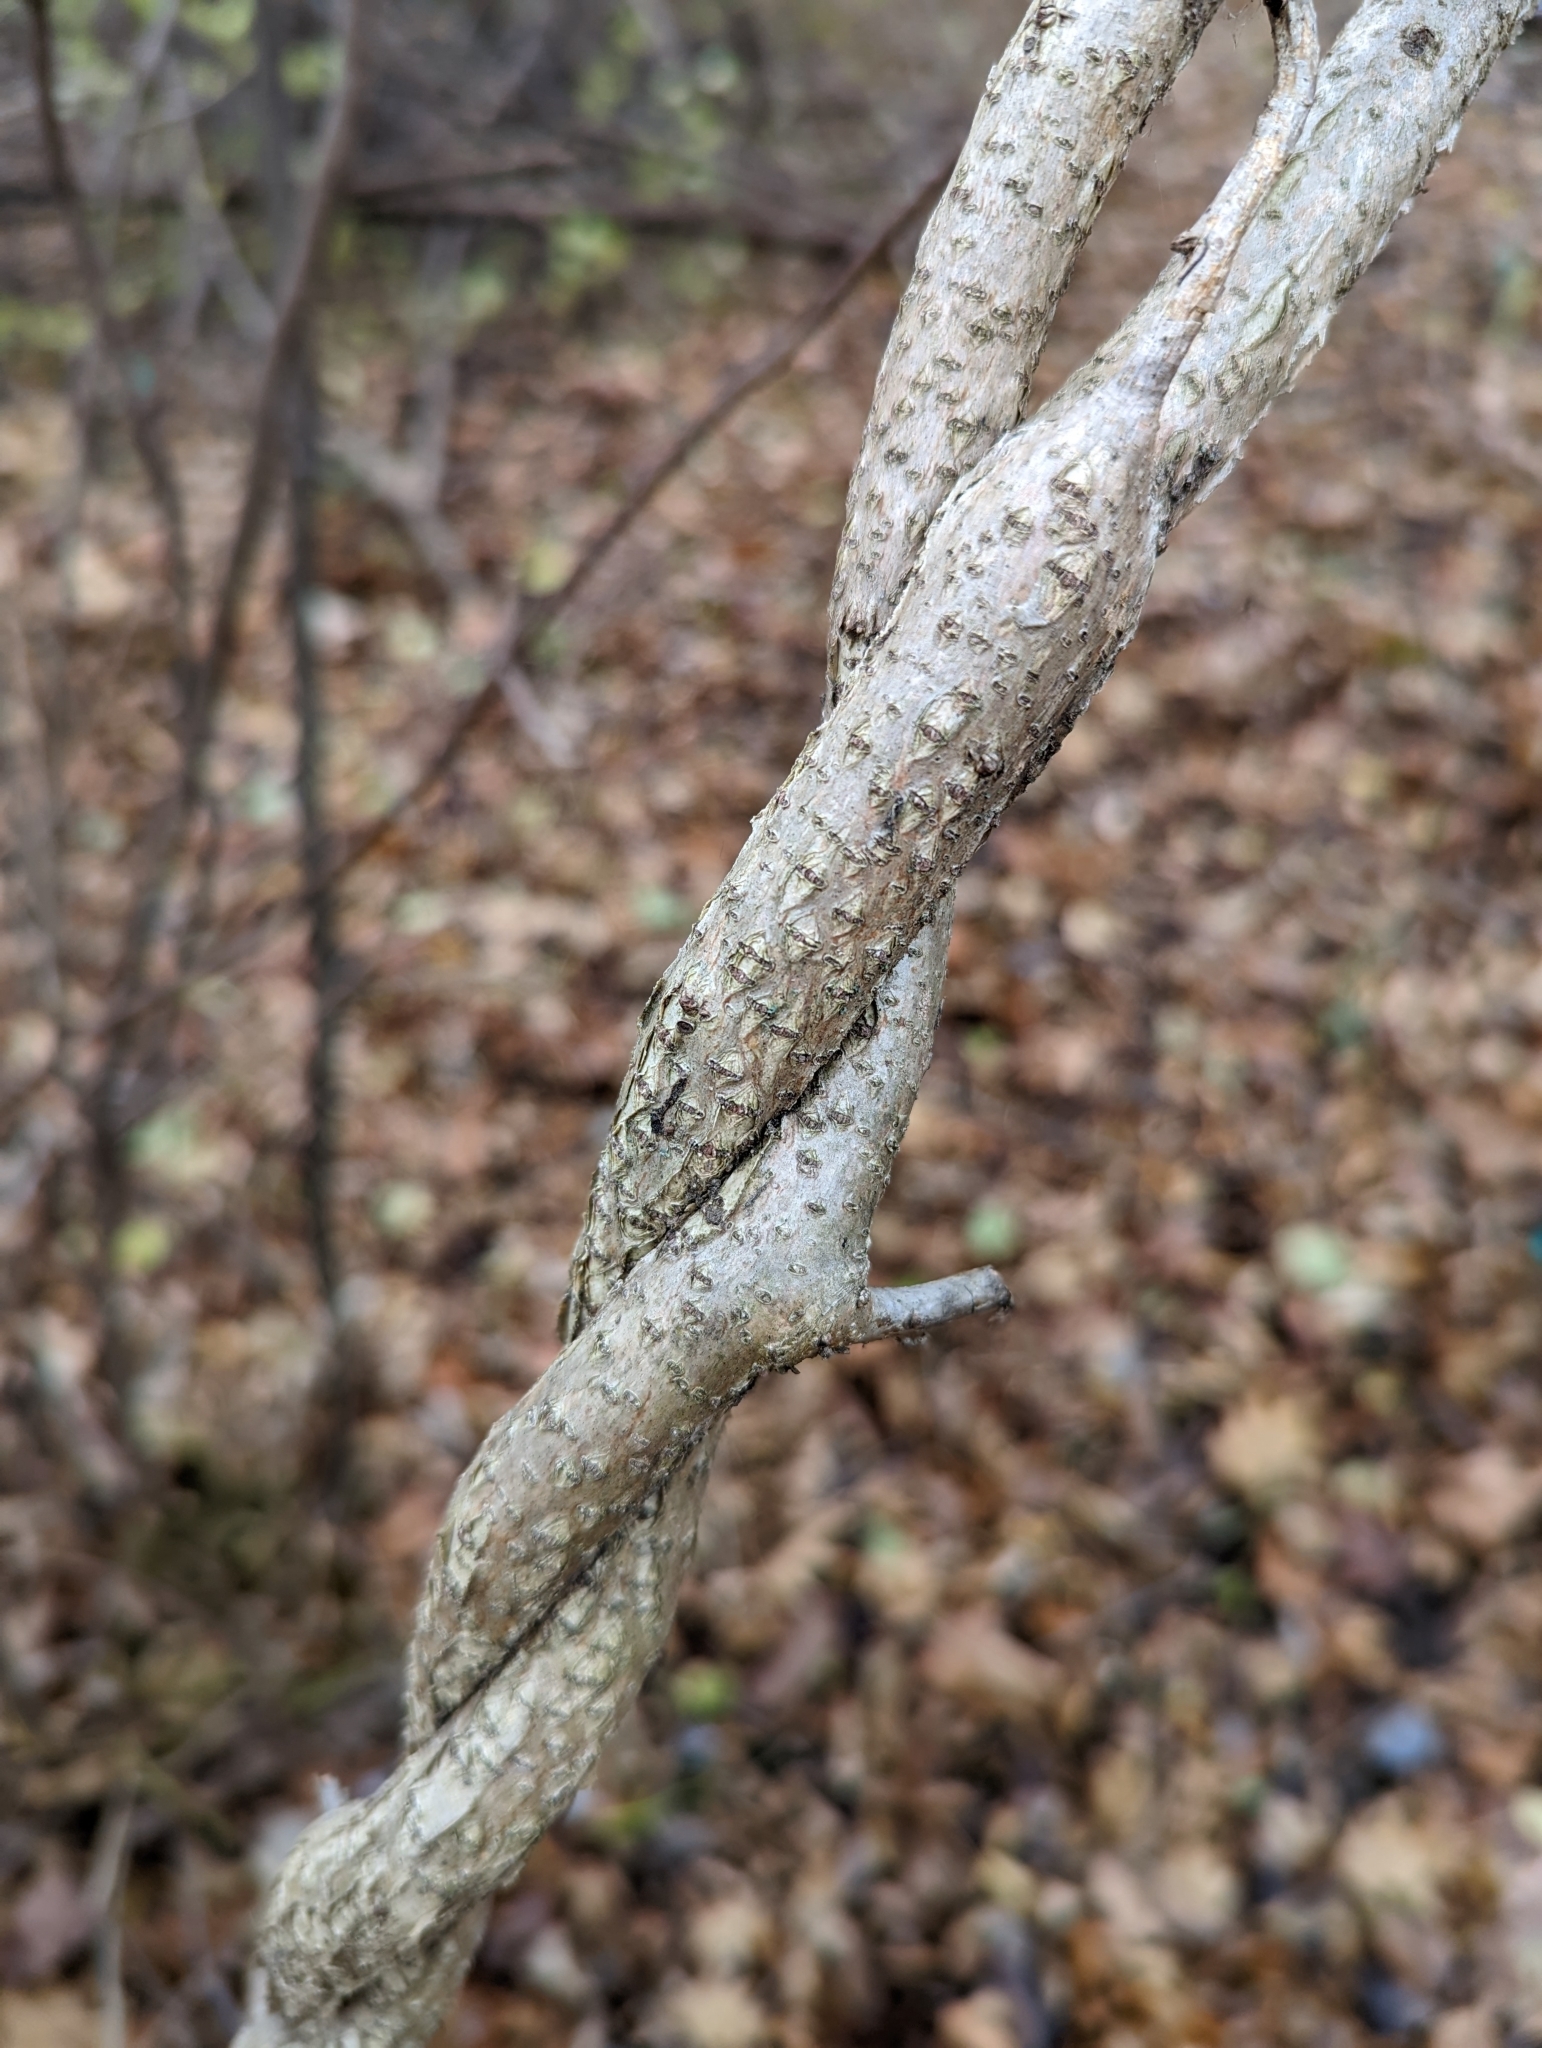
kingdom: Plantae
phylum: Tracheophyta
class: Magnoliopsida
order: Celastrales
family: Celastraceae
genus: Celastrus
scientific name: Celastrus orbiculatus
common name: Oriental bittersweet
